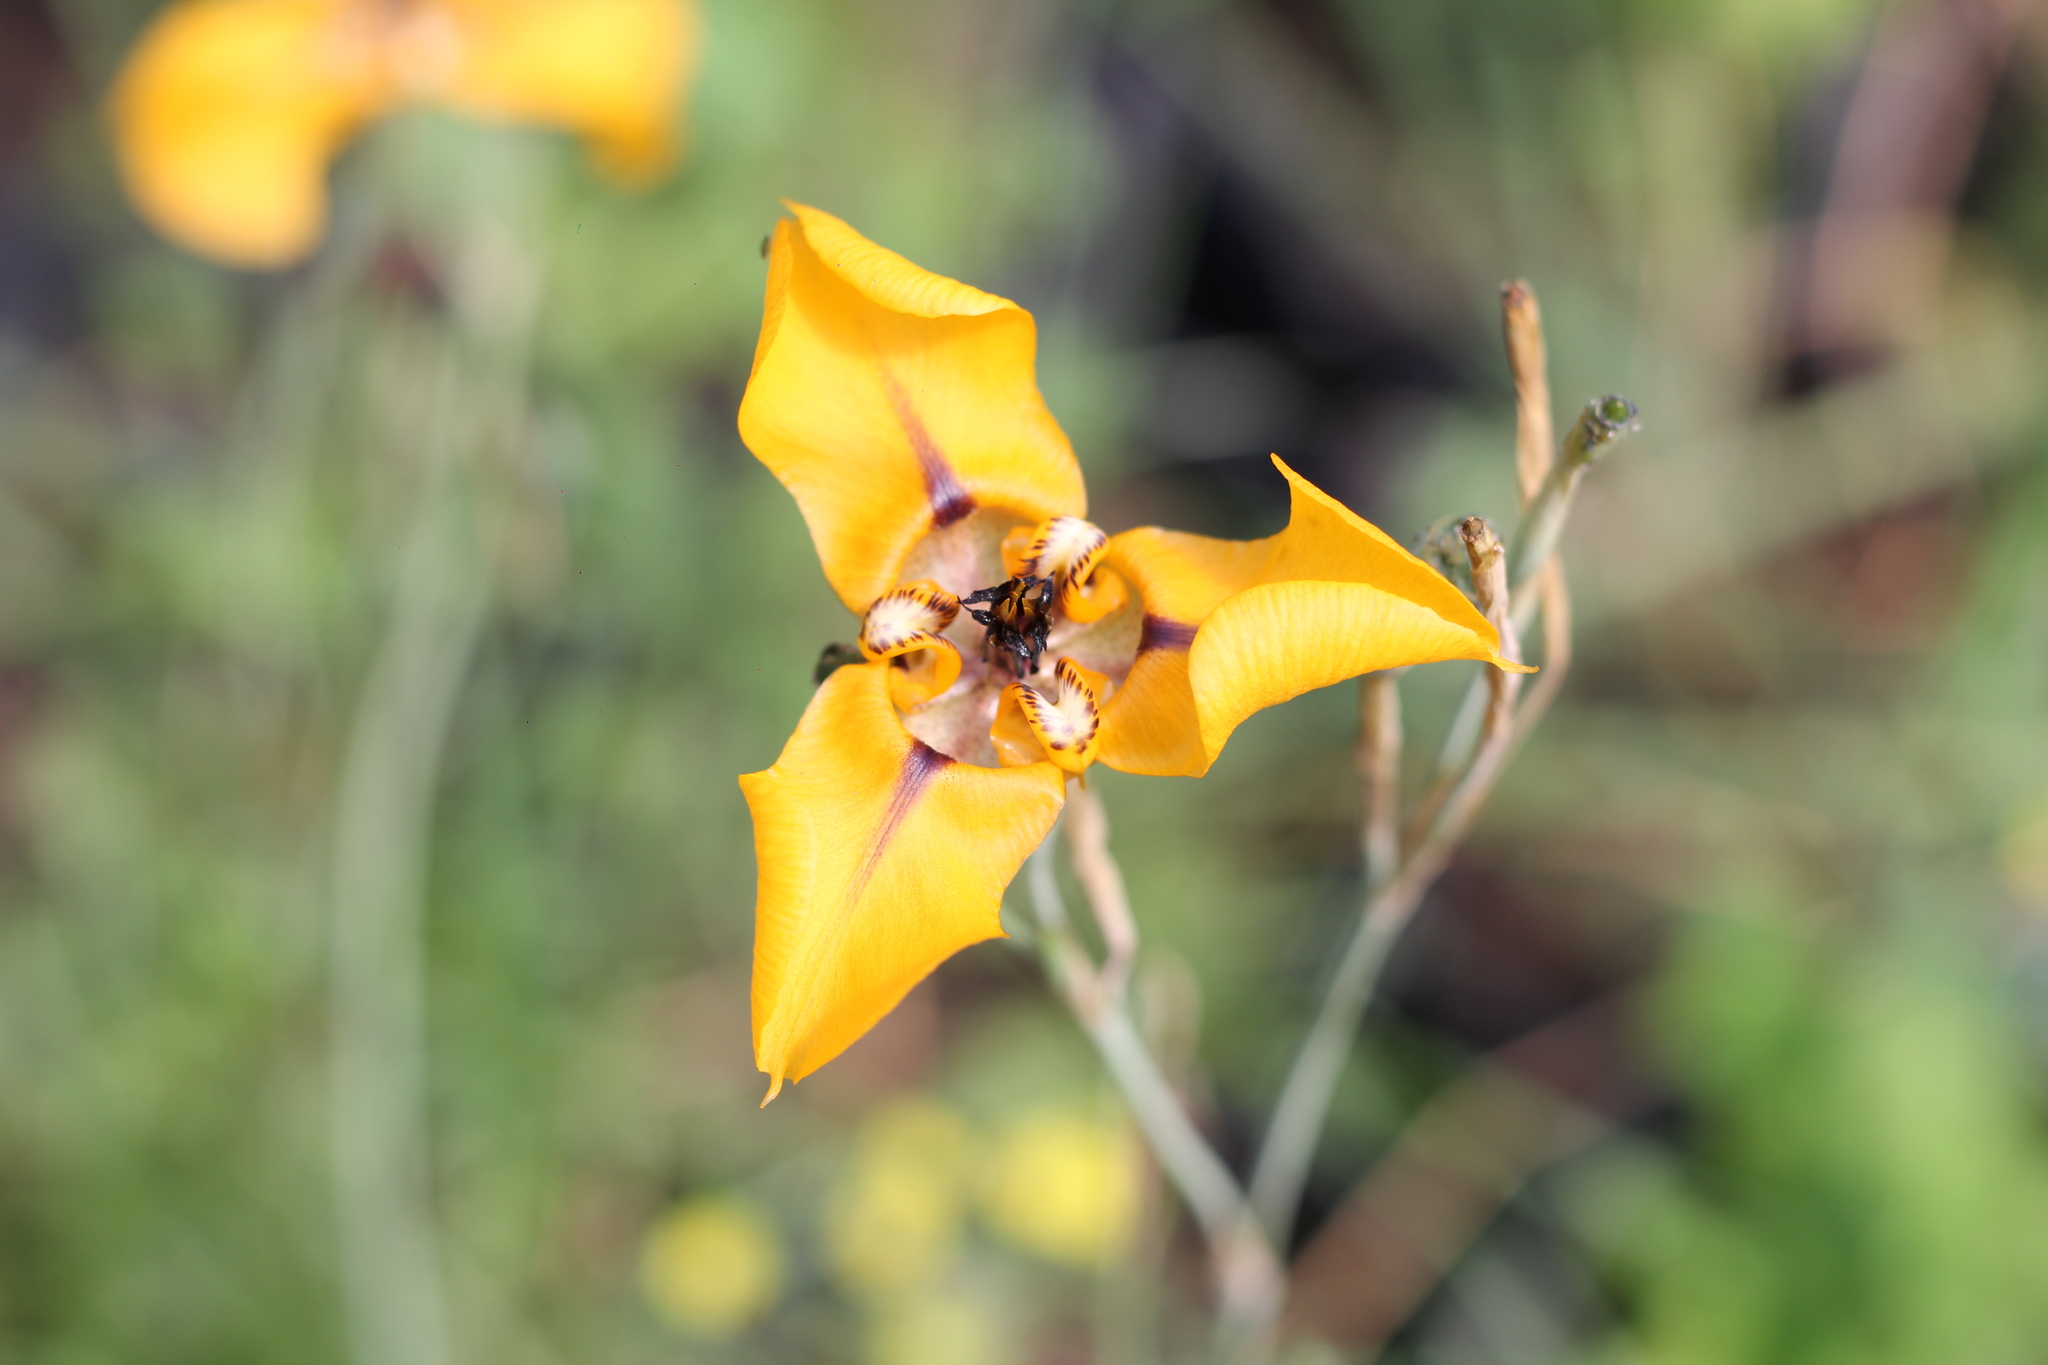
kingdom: Plantae
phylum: Tracheophyta
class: Liliopsida
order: Asparagales
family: Iridaceae
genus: Cypella
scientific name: Cypella herbertii
